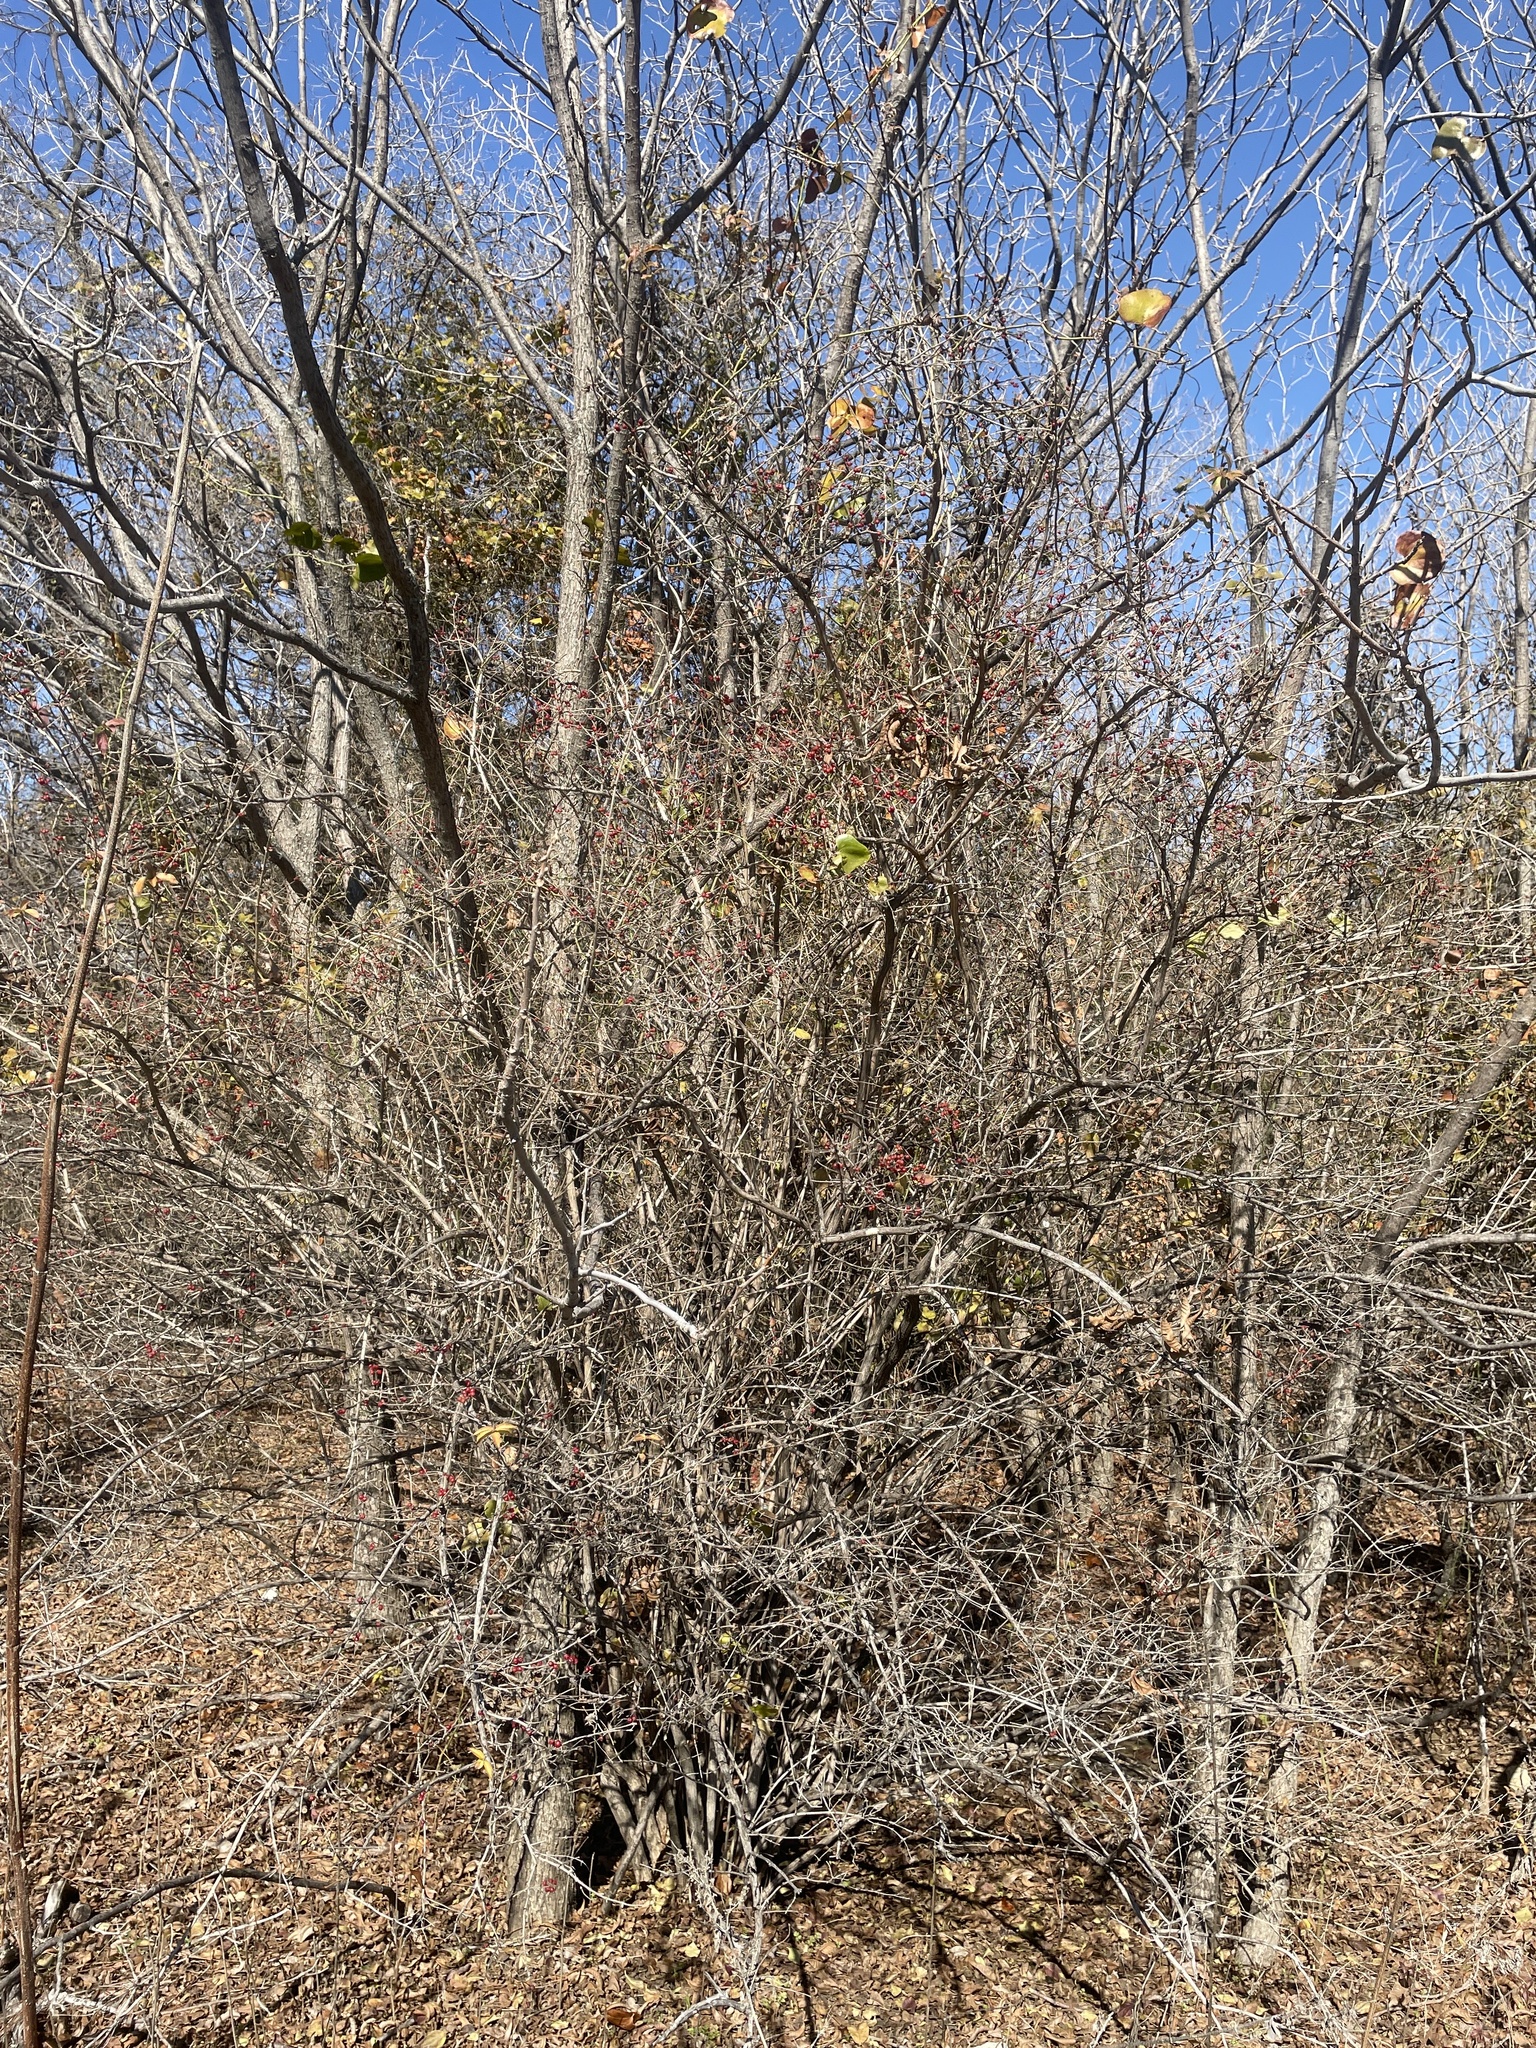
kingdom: Plantae
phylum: Tracheophyta
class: Magnoliopsida
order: Dipsacales
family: Caprifoliaceae
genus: Lonicera
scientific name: Lonicera maackii
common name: Amur honeysuckle
